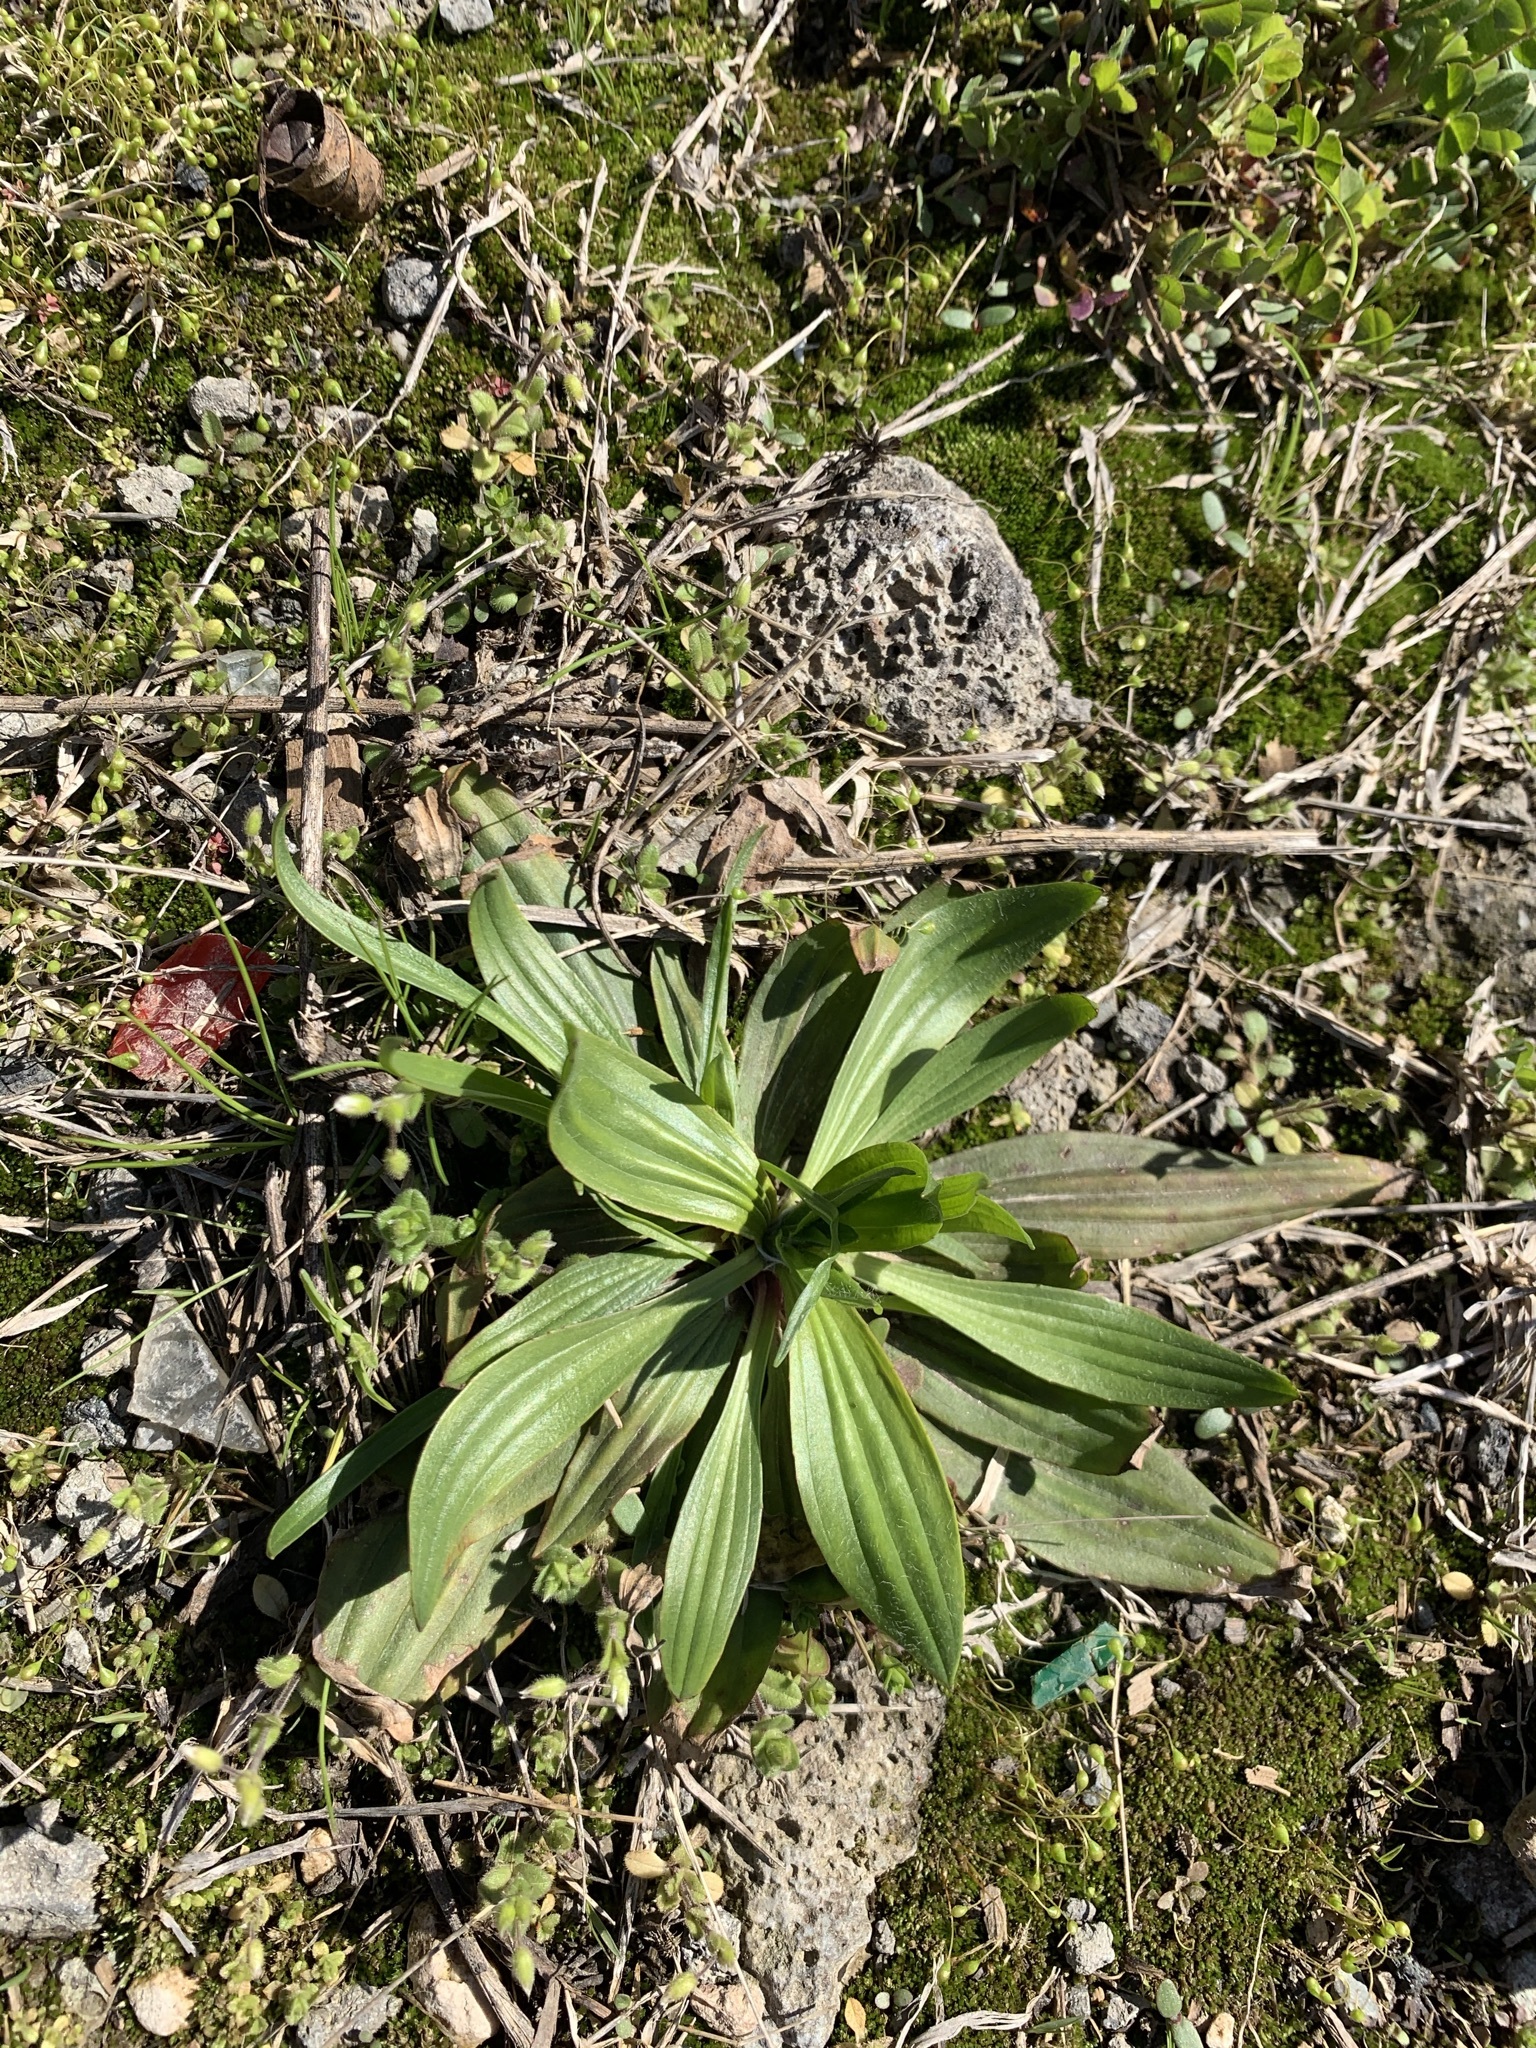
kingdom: Plantae
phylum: Tracheophyta
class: Magnoliopsida
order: Lamiales
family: Plantaginaceae
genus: Plantago
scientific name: Plantago lanceolata
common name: Ribwort plantain
